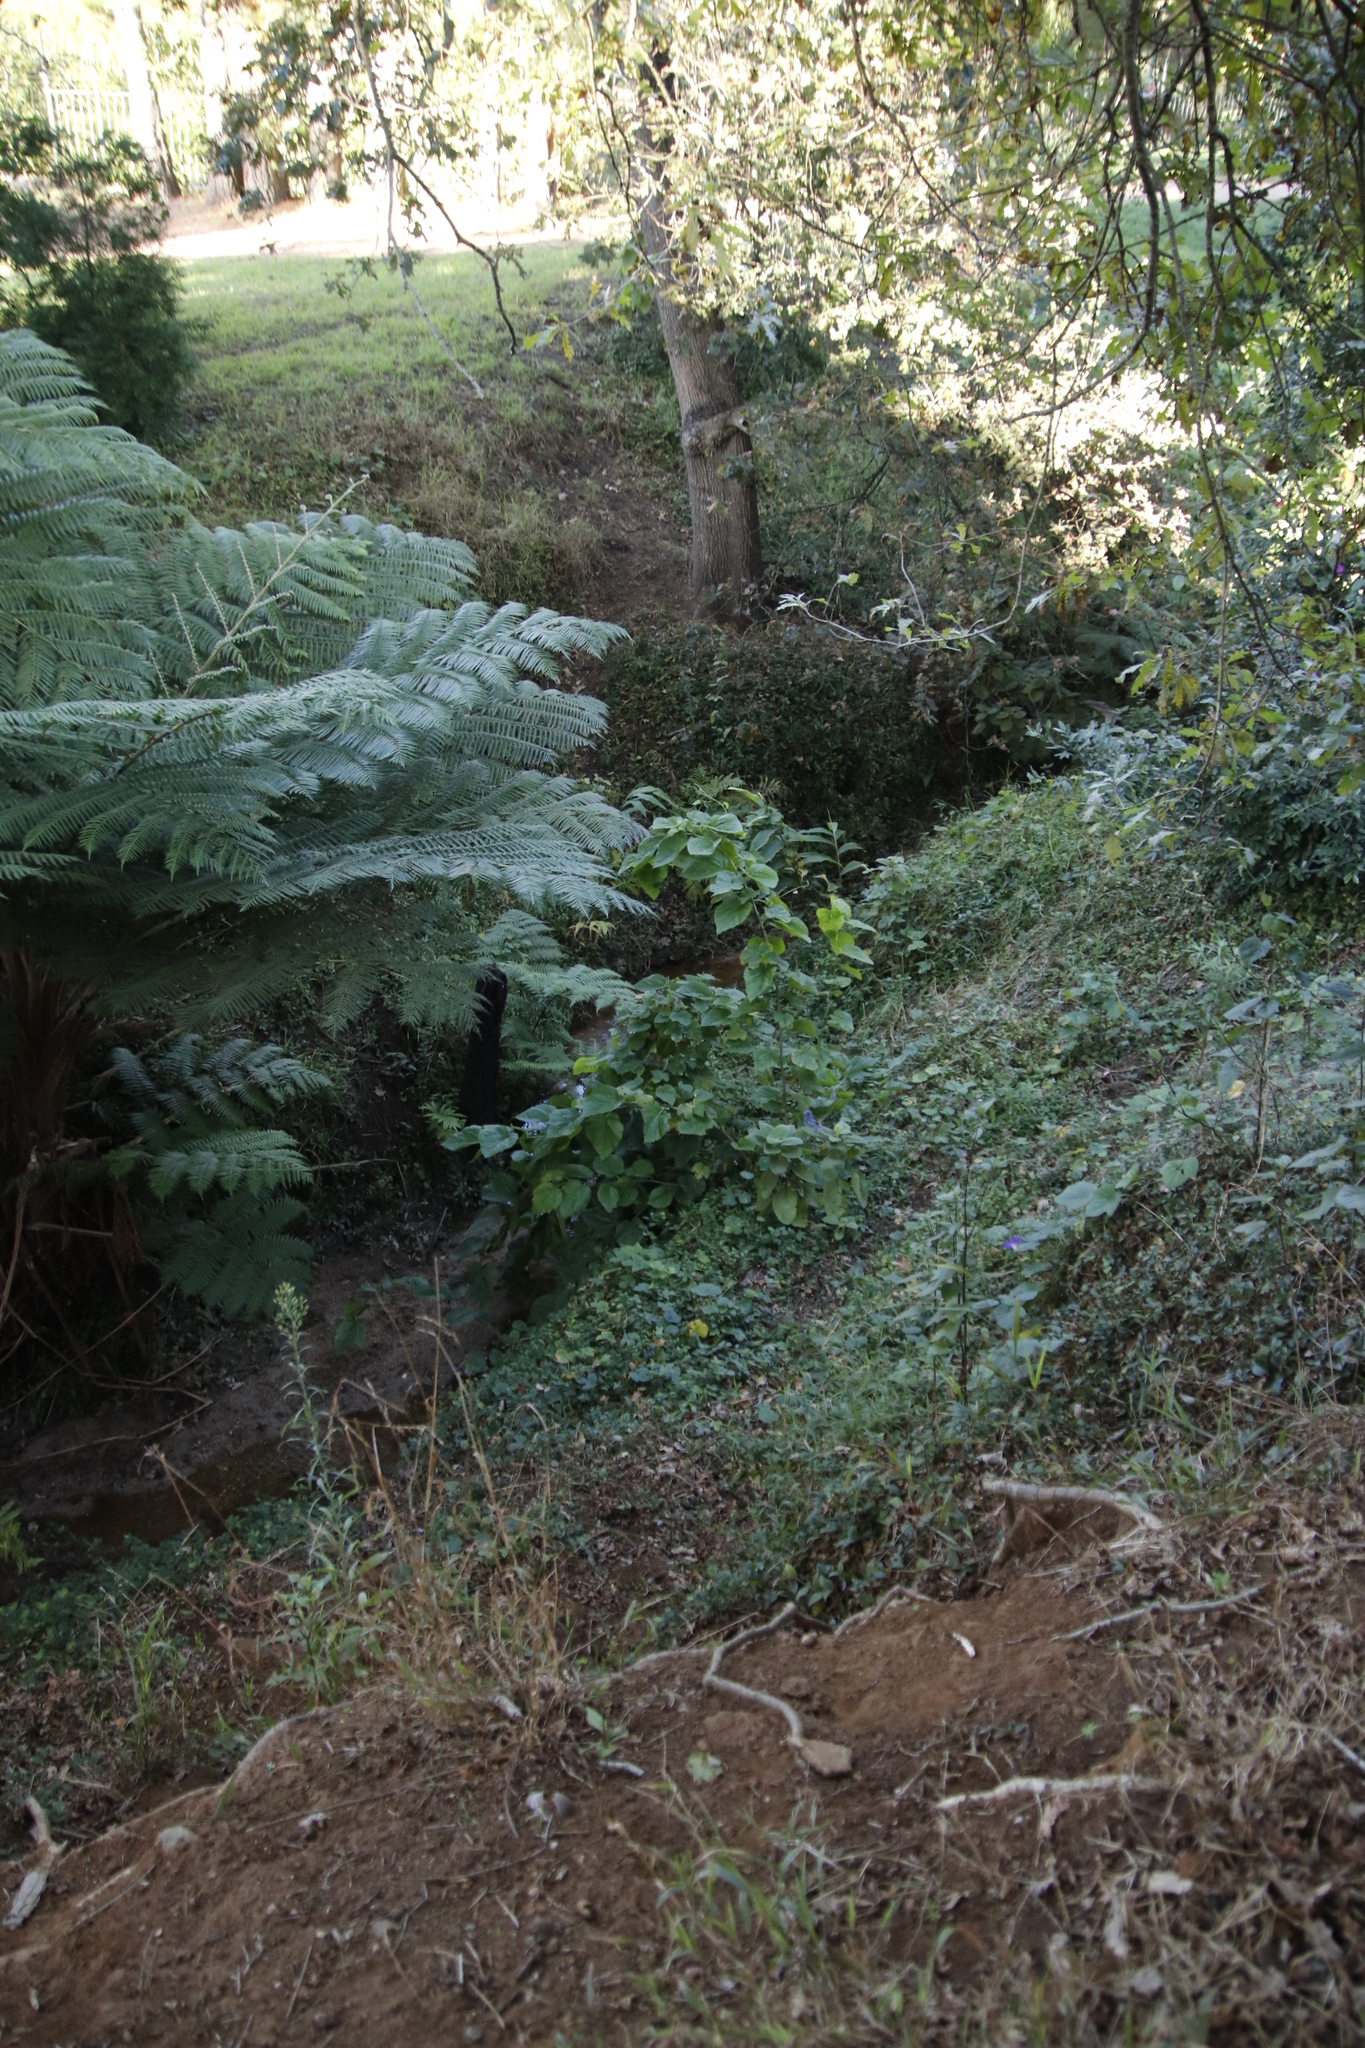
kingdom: Plantae
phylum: Tracheophyta
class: Magnoliopsida
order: Rosales
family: Moraceae
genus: Morus
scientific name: Morus alba
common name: White mulberry
